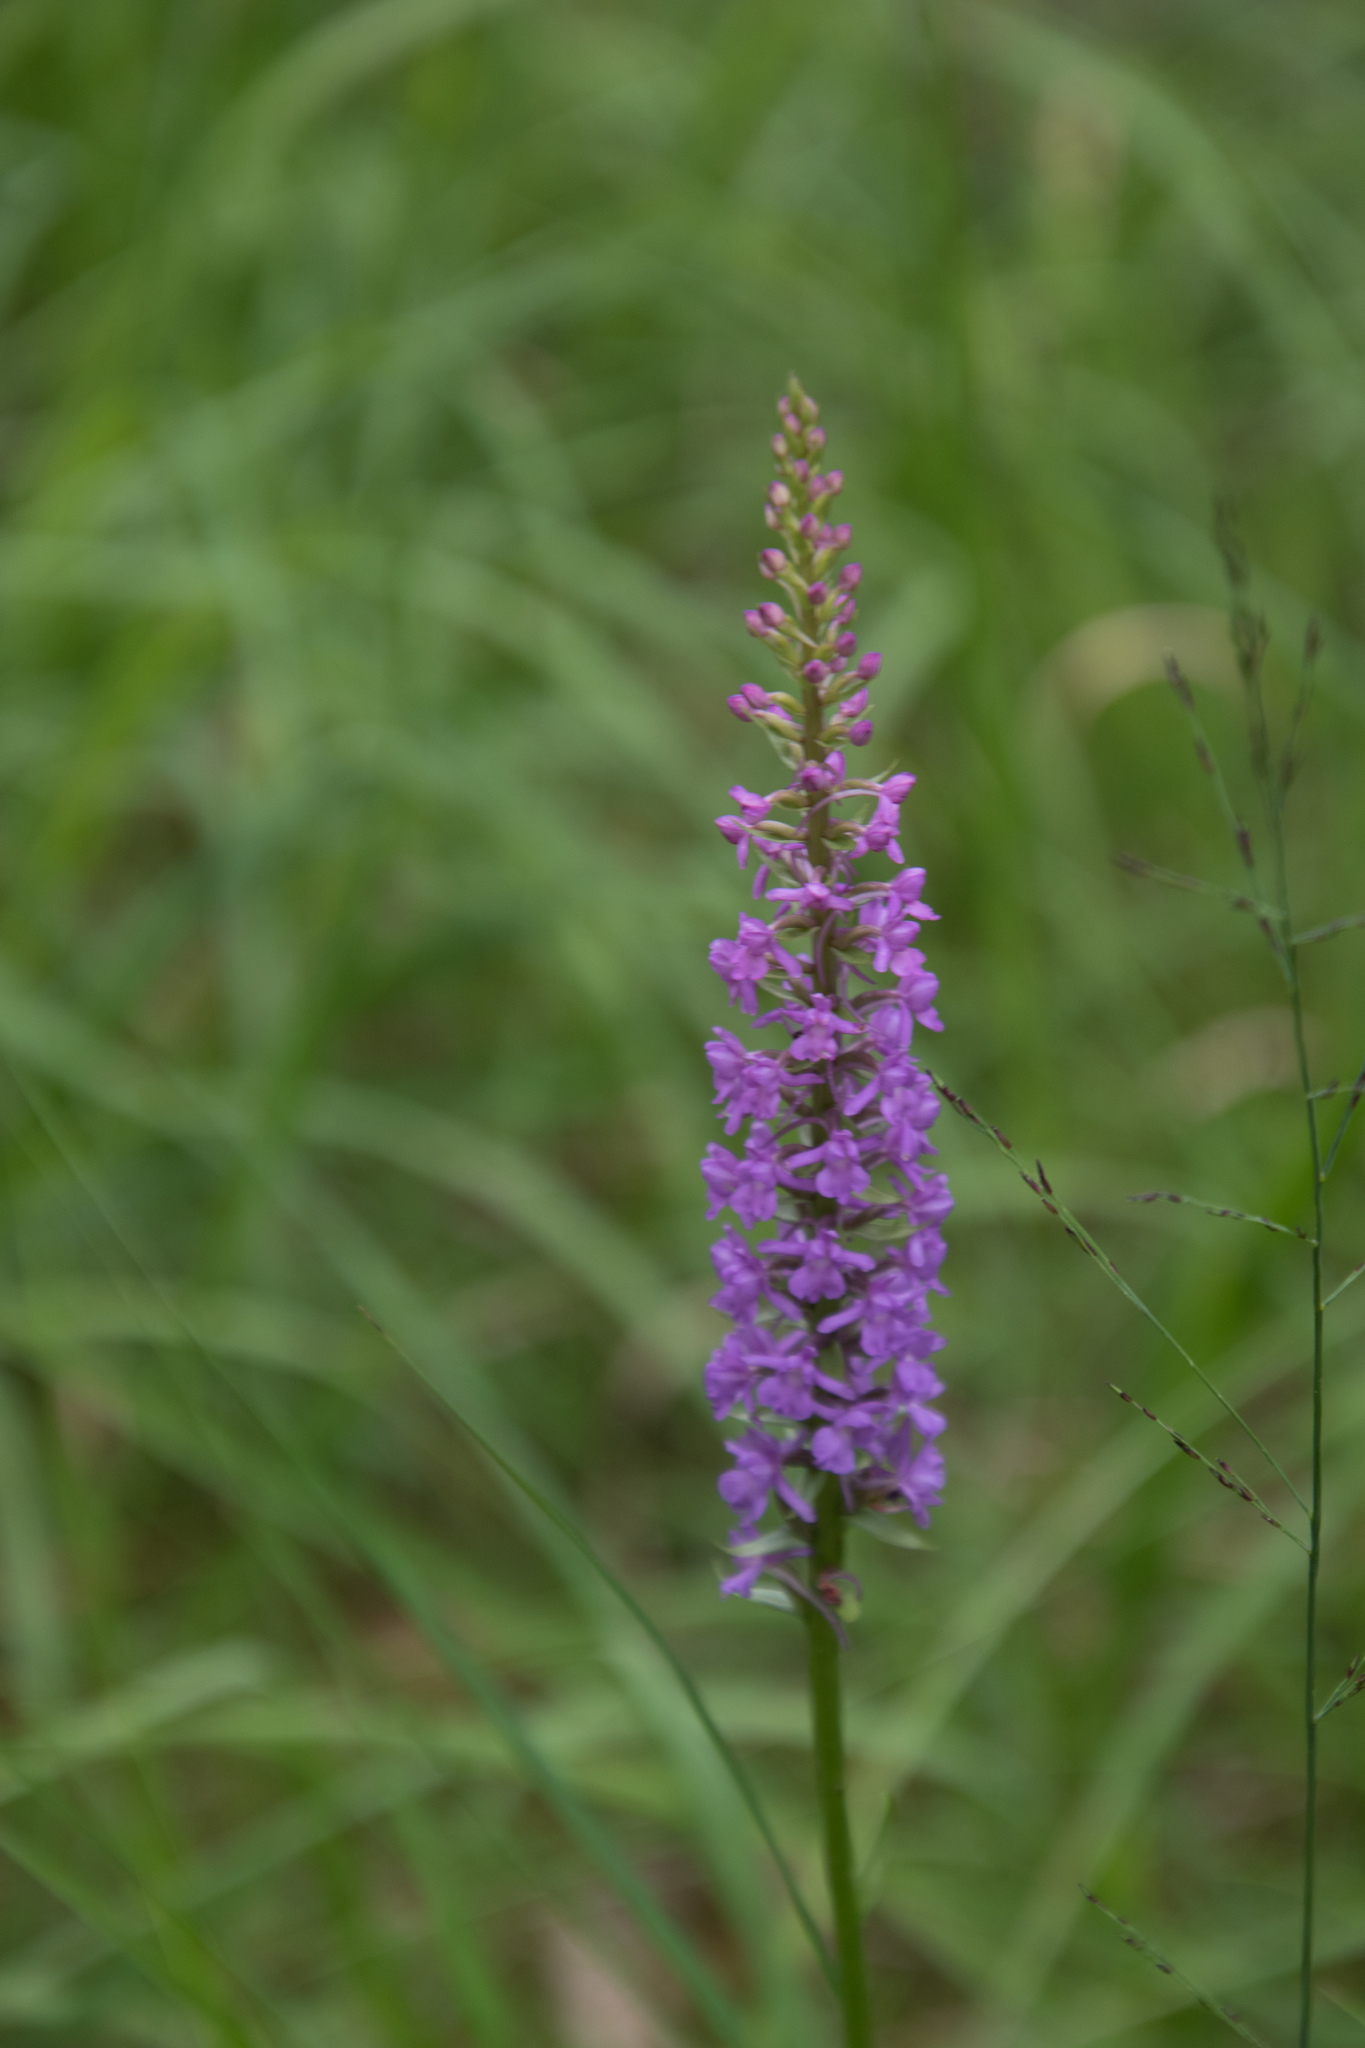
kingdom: Plantae
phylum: Tracheophyta
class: Liliopsida
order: Asparagales
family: Orchidaceae
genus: Gymnadenia
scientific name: Gymnadenia conopsea
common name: Fragrant orchid
